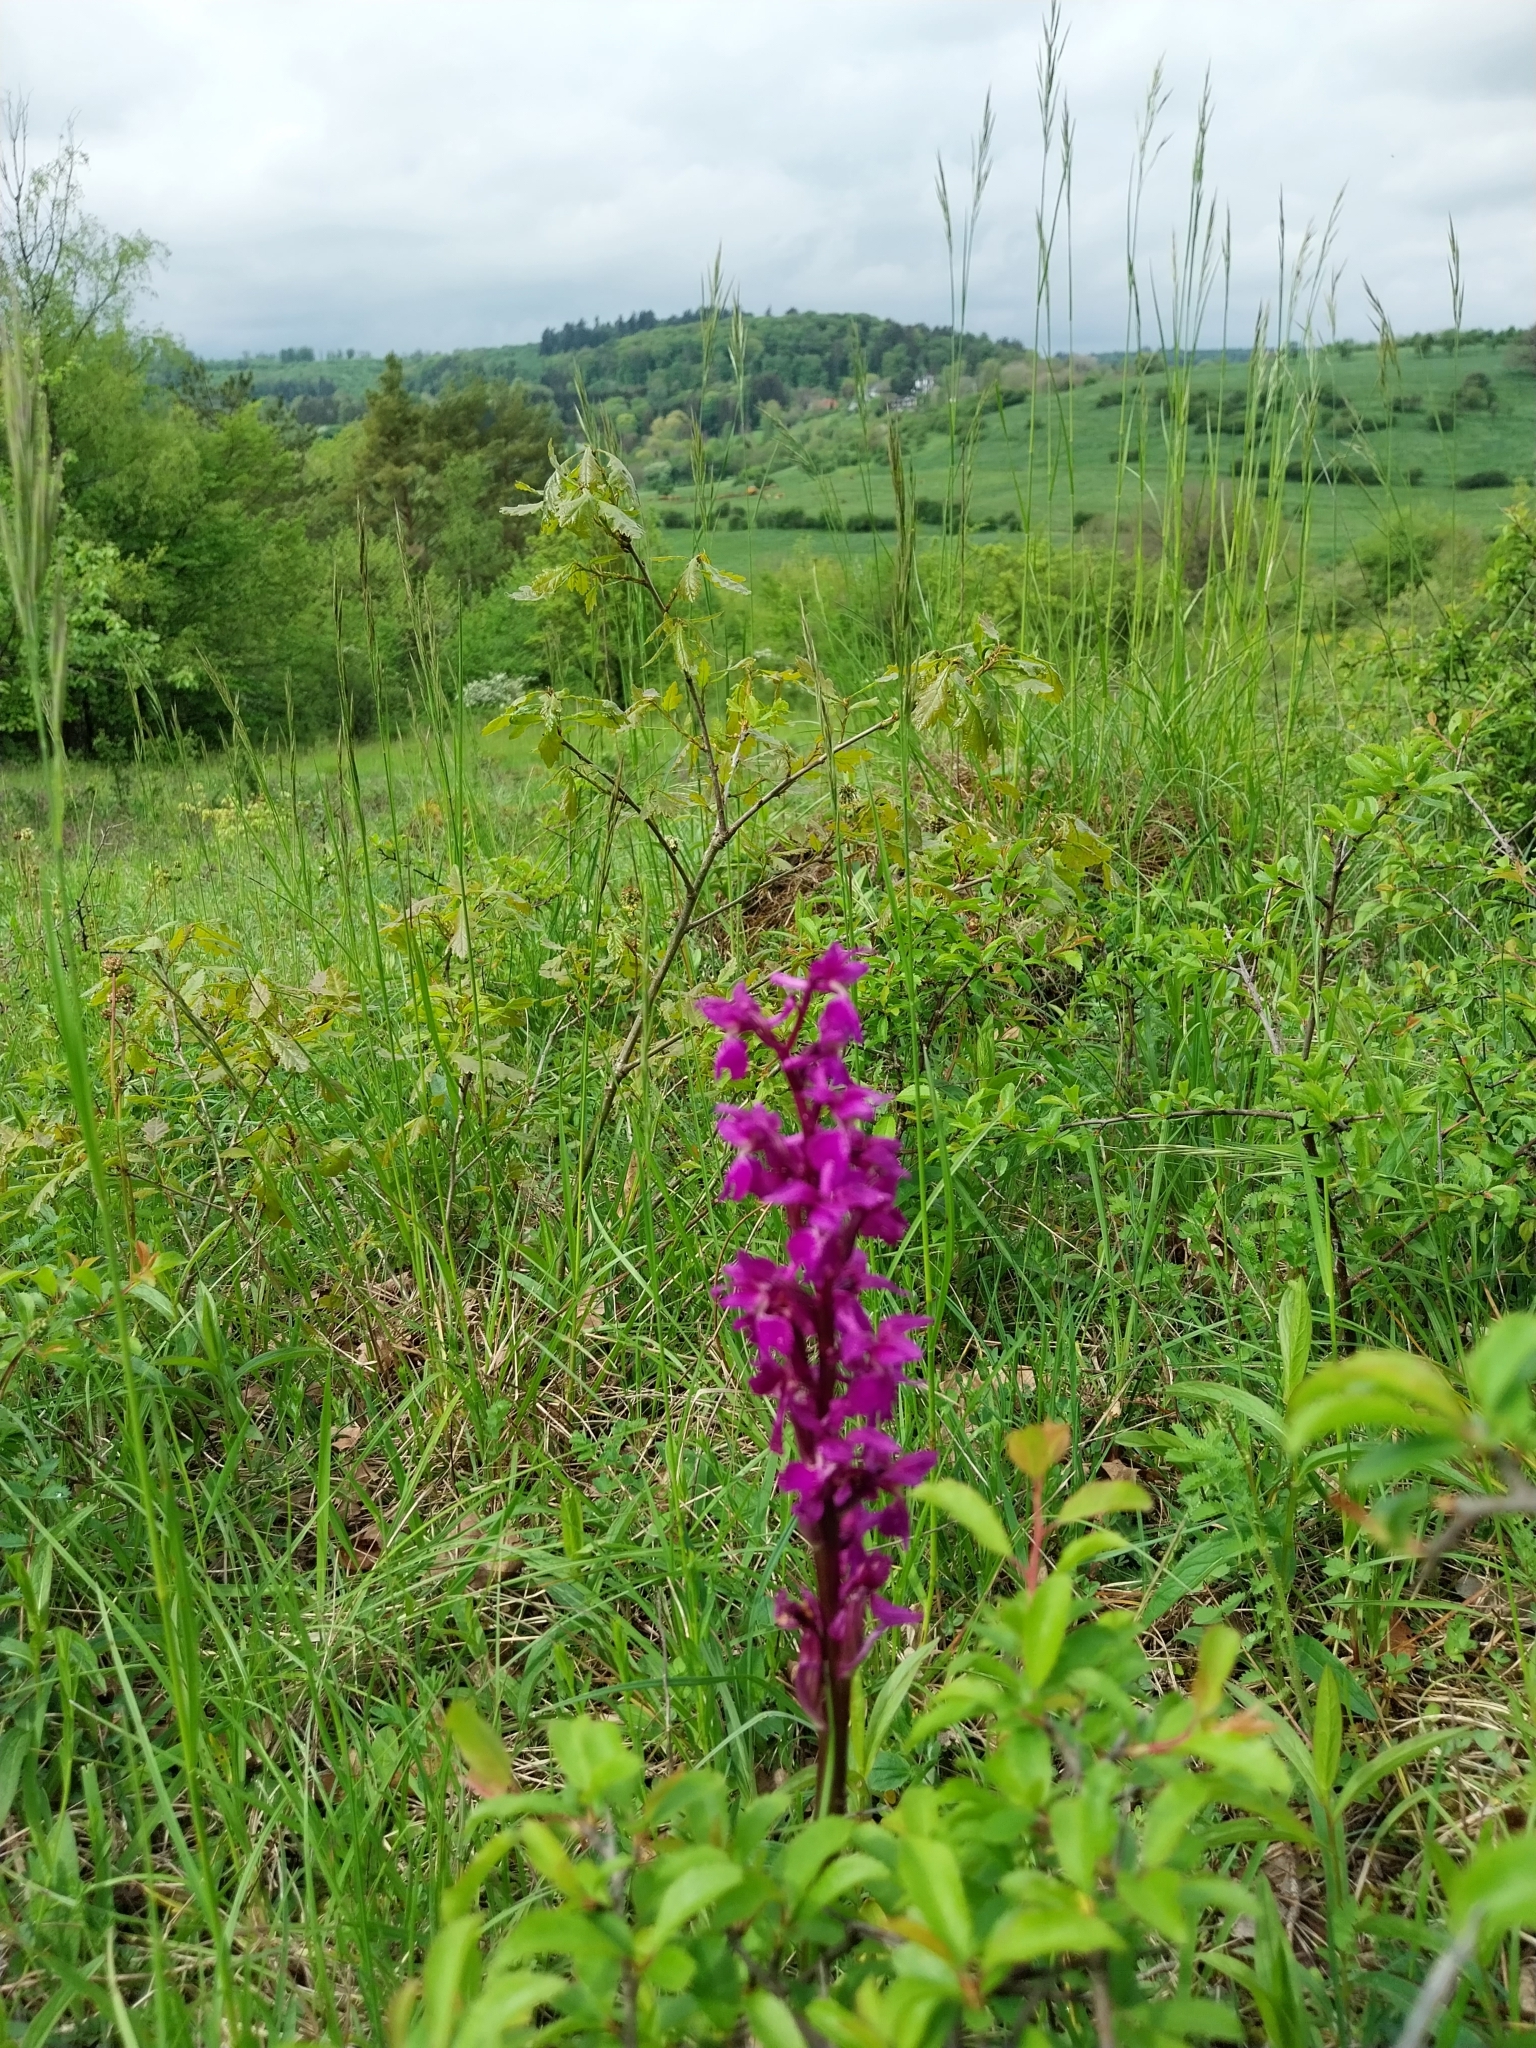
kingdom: Plantae
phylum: Tracheophyta
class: Liliopsida
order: Asparagales
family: Orchidaceae
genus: Orchis
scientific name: Orchis mascula
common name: Early-purple orchid
